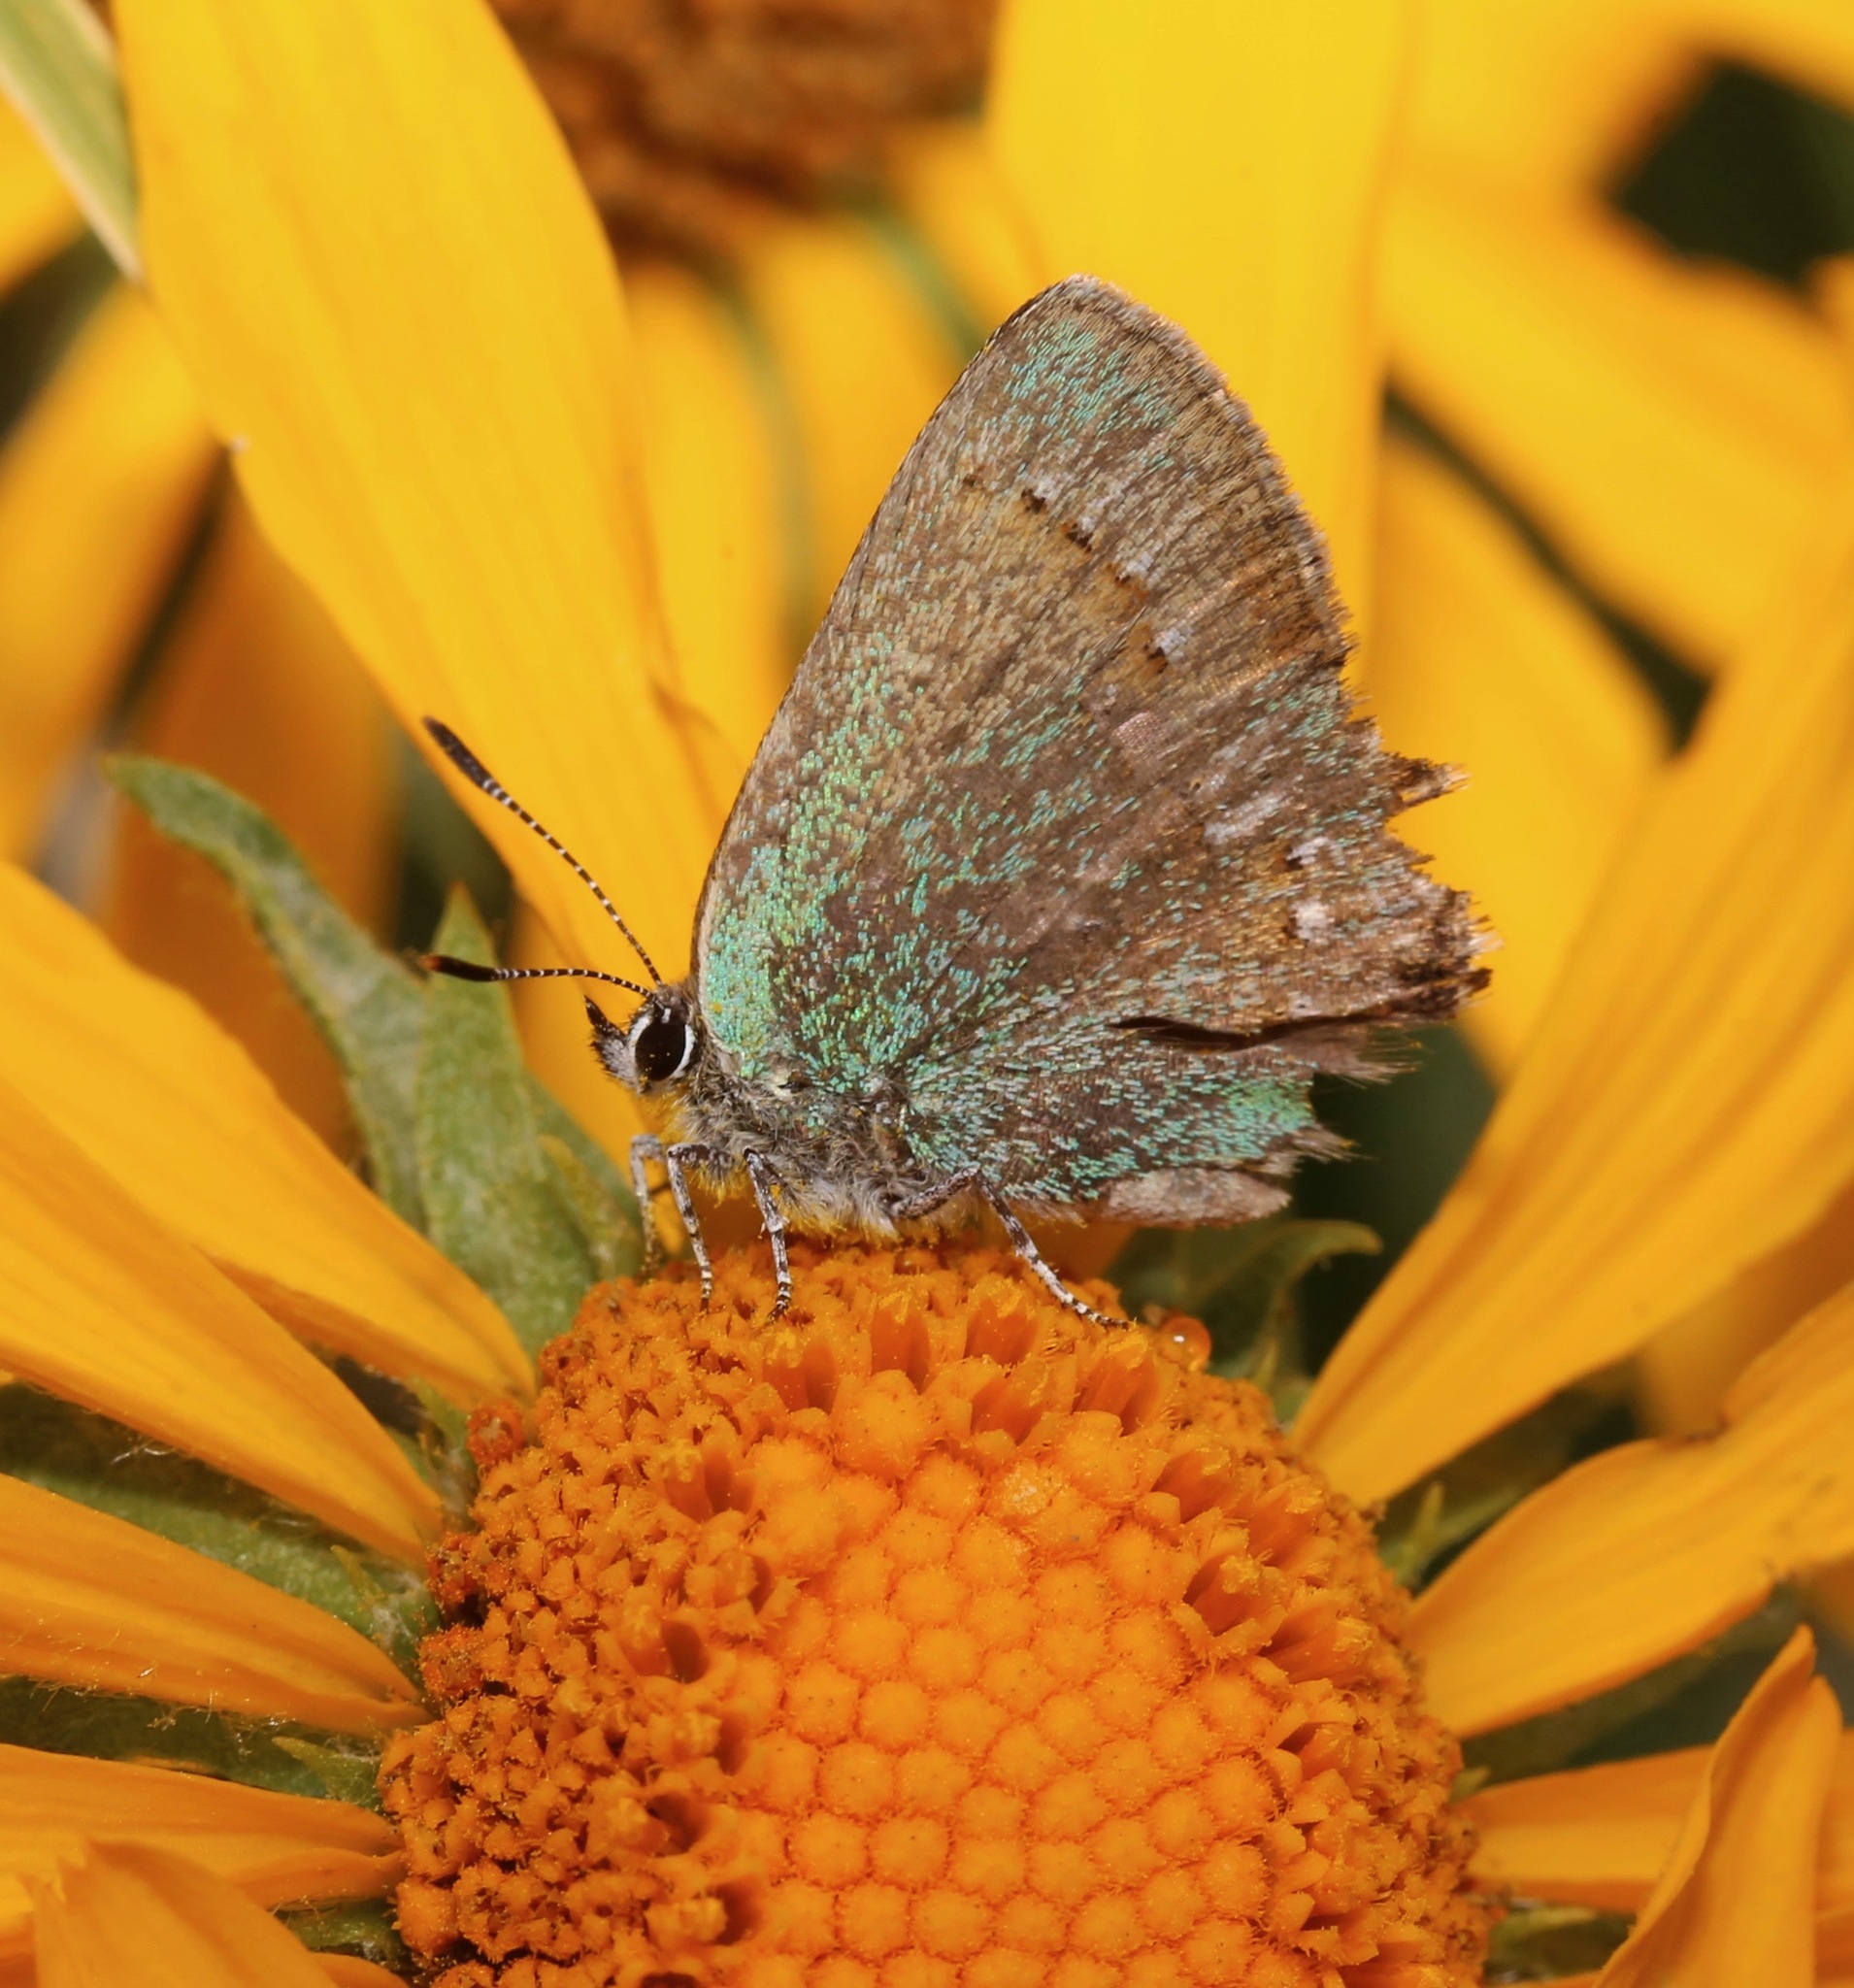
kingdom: Animalia
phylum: Arthropoda
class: Insecta
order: Lepidoptera
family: Lycaenidae
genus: Callophrys
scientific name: Callophrys affinis
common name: Western green hairstreak
